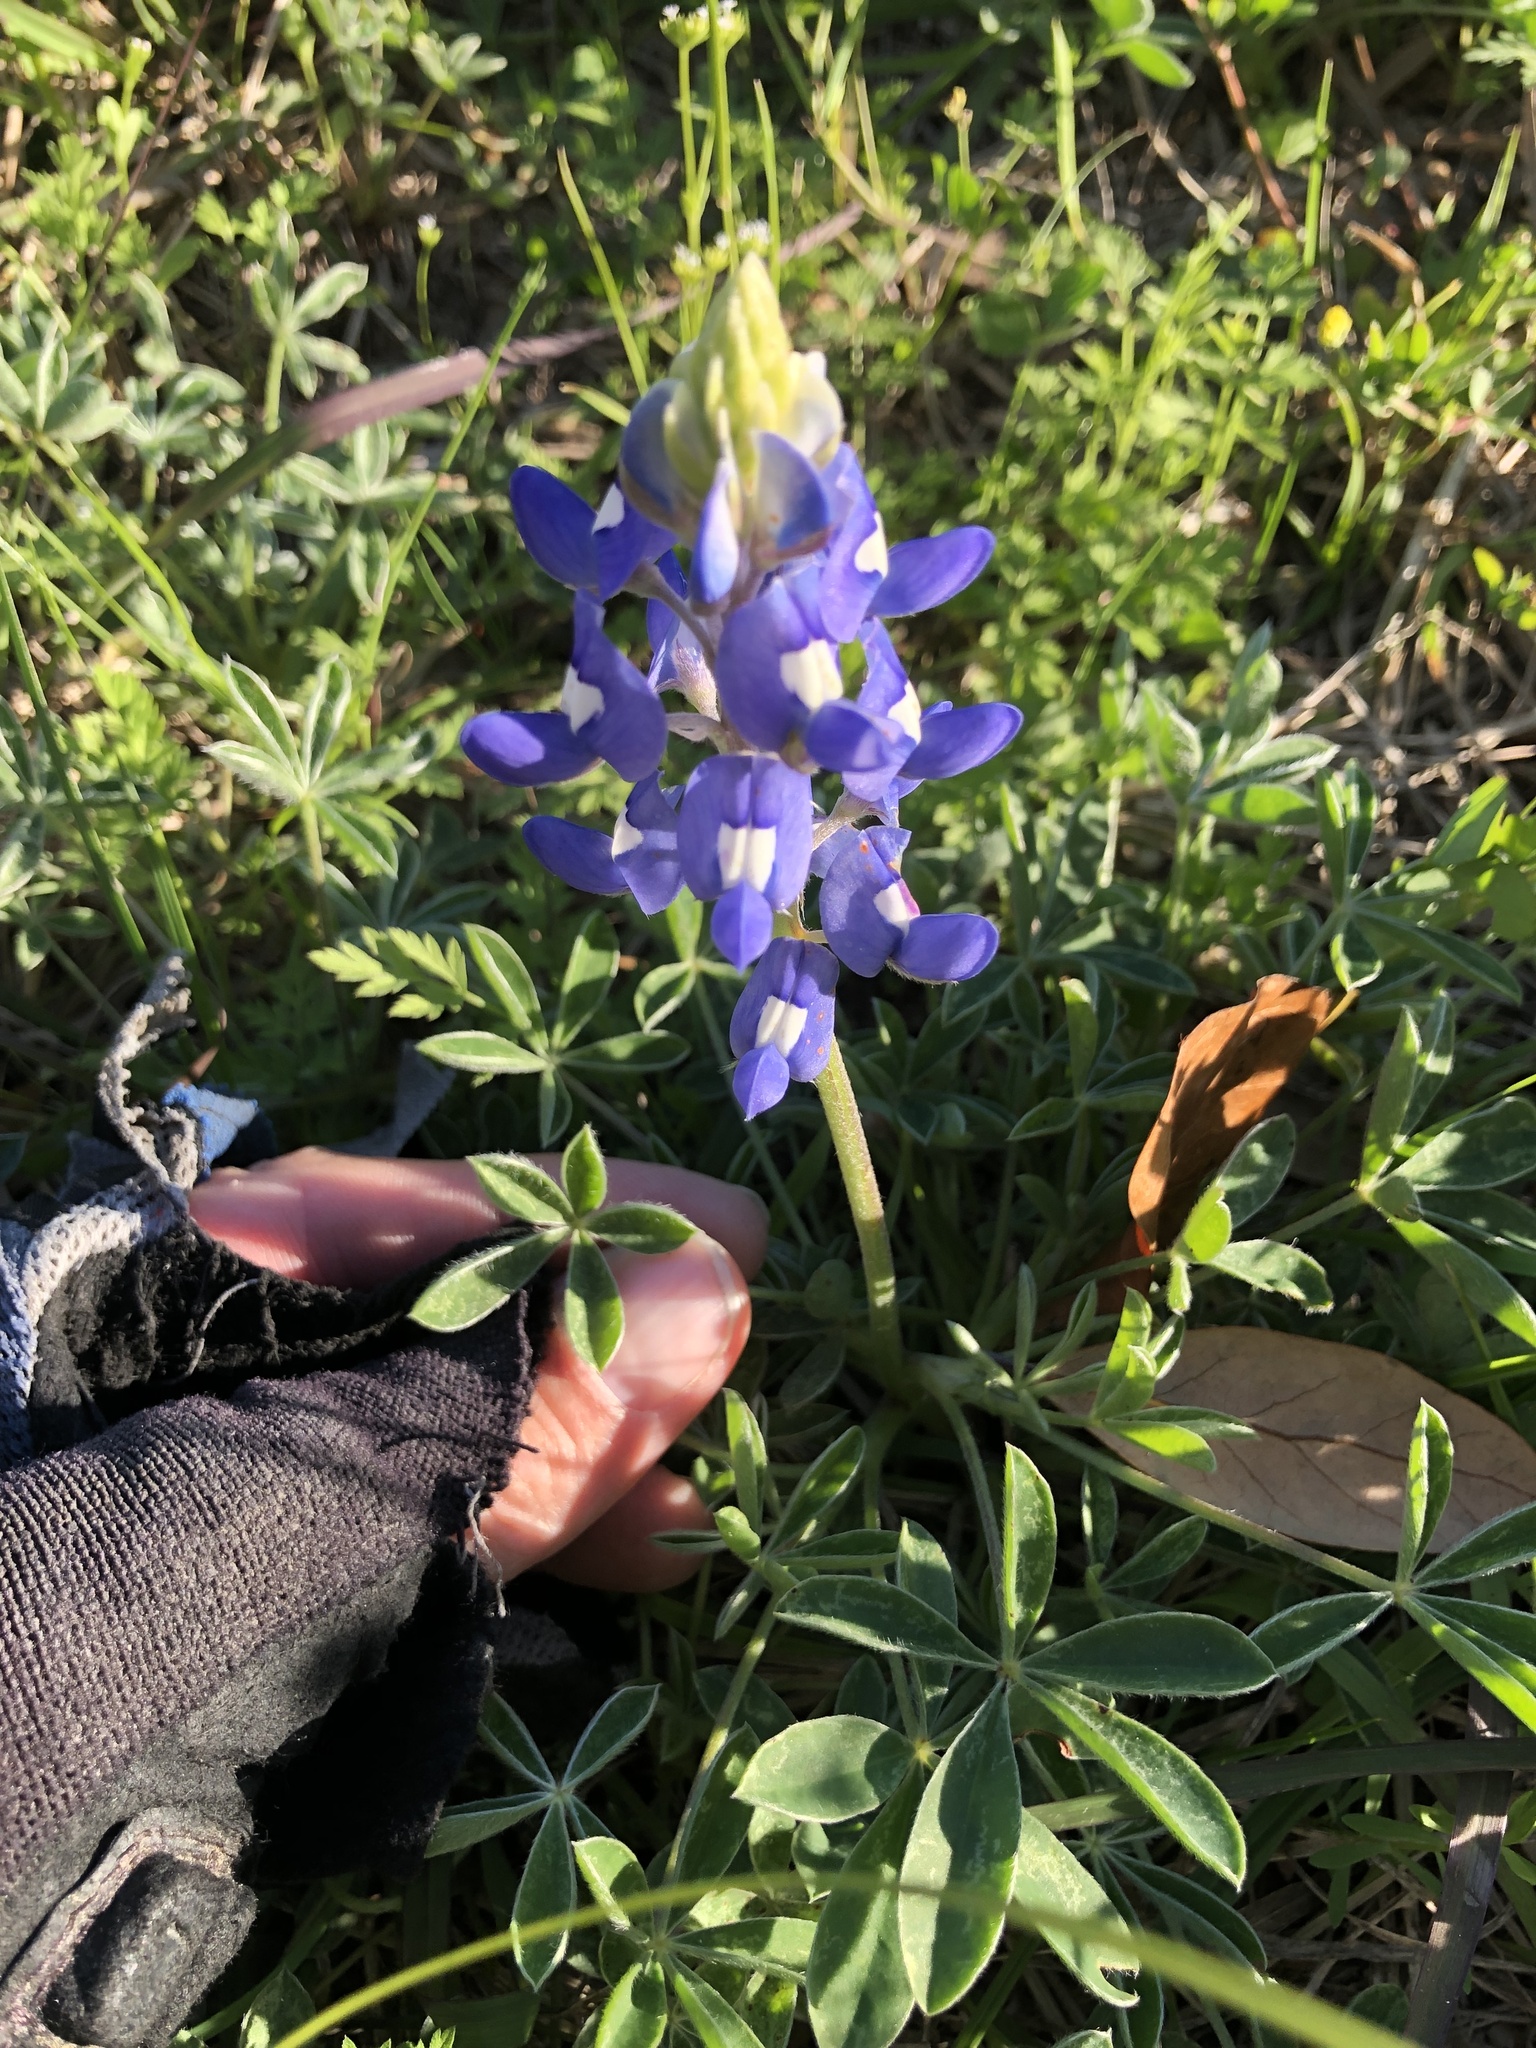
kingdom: Plantae
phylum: Tracheophyta
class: Magnoliopsida
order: Fabales
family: Fabaceae
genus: Lupinus
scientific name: Lupinus texensis
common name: Texas bluebonnet
